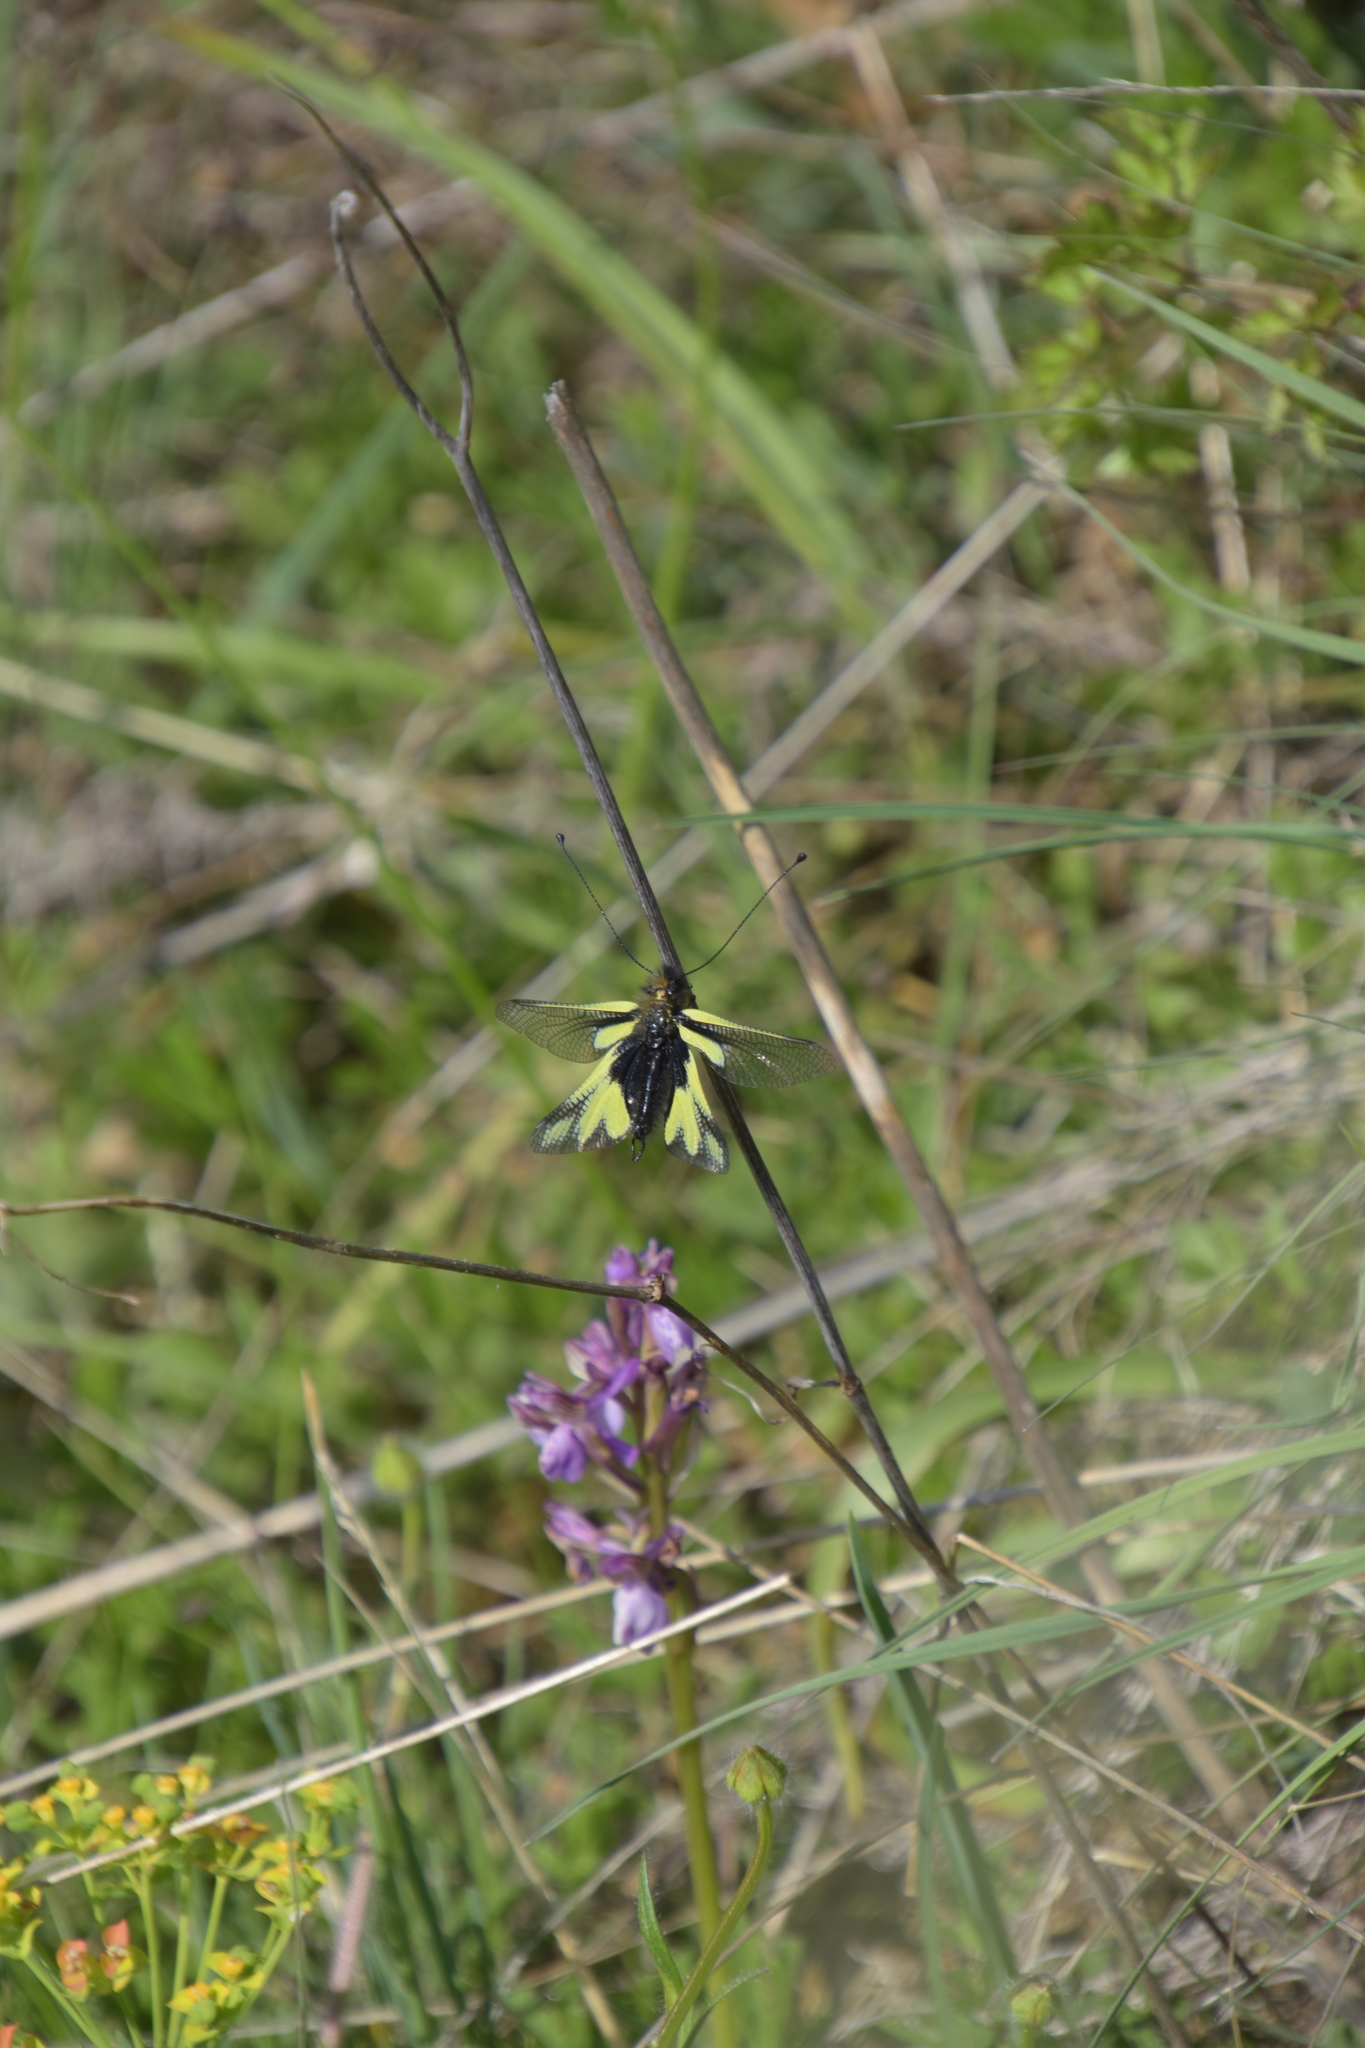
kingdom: Animalia
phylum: Arthropoda
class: Insecta
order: Neuroptera
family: Ascalaphidae
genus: Libelloides
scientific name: Libelloides coccajus
